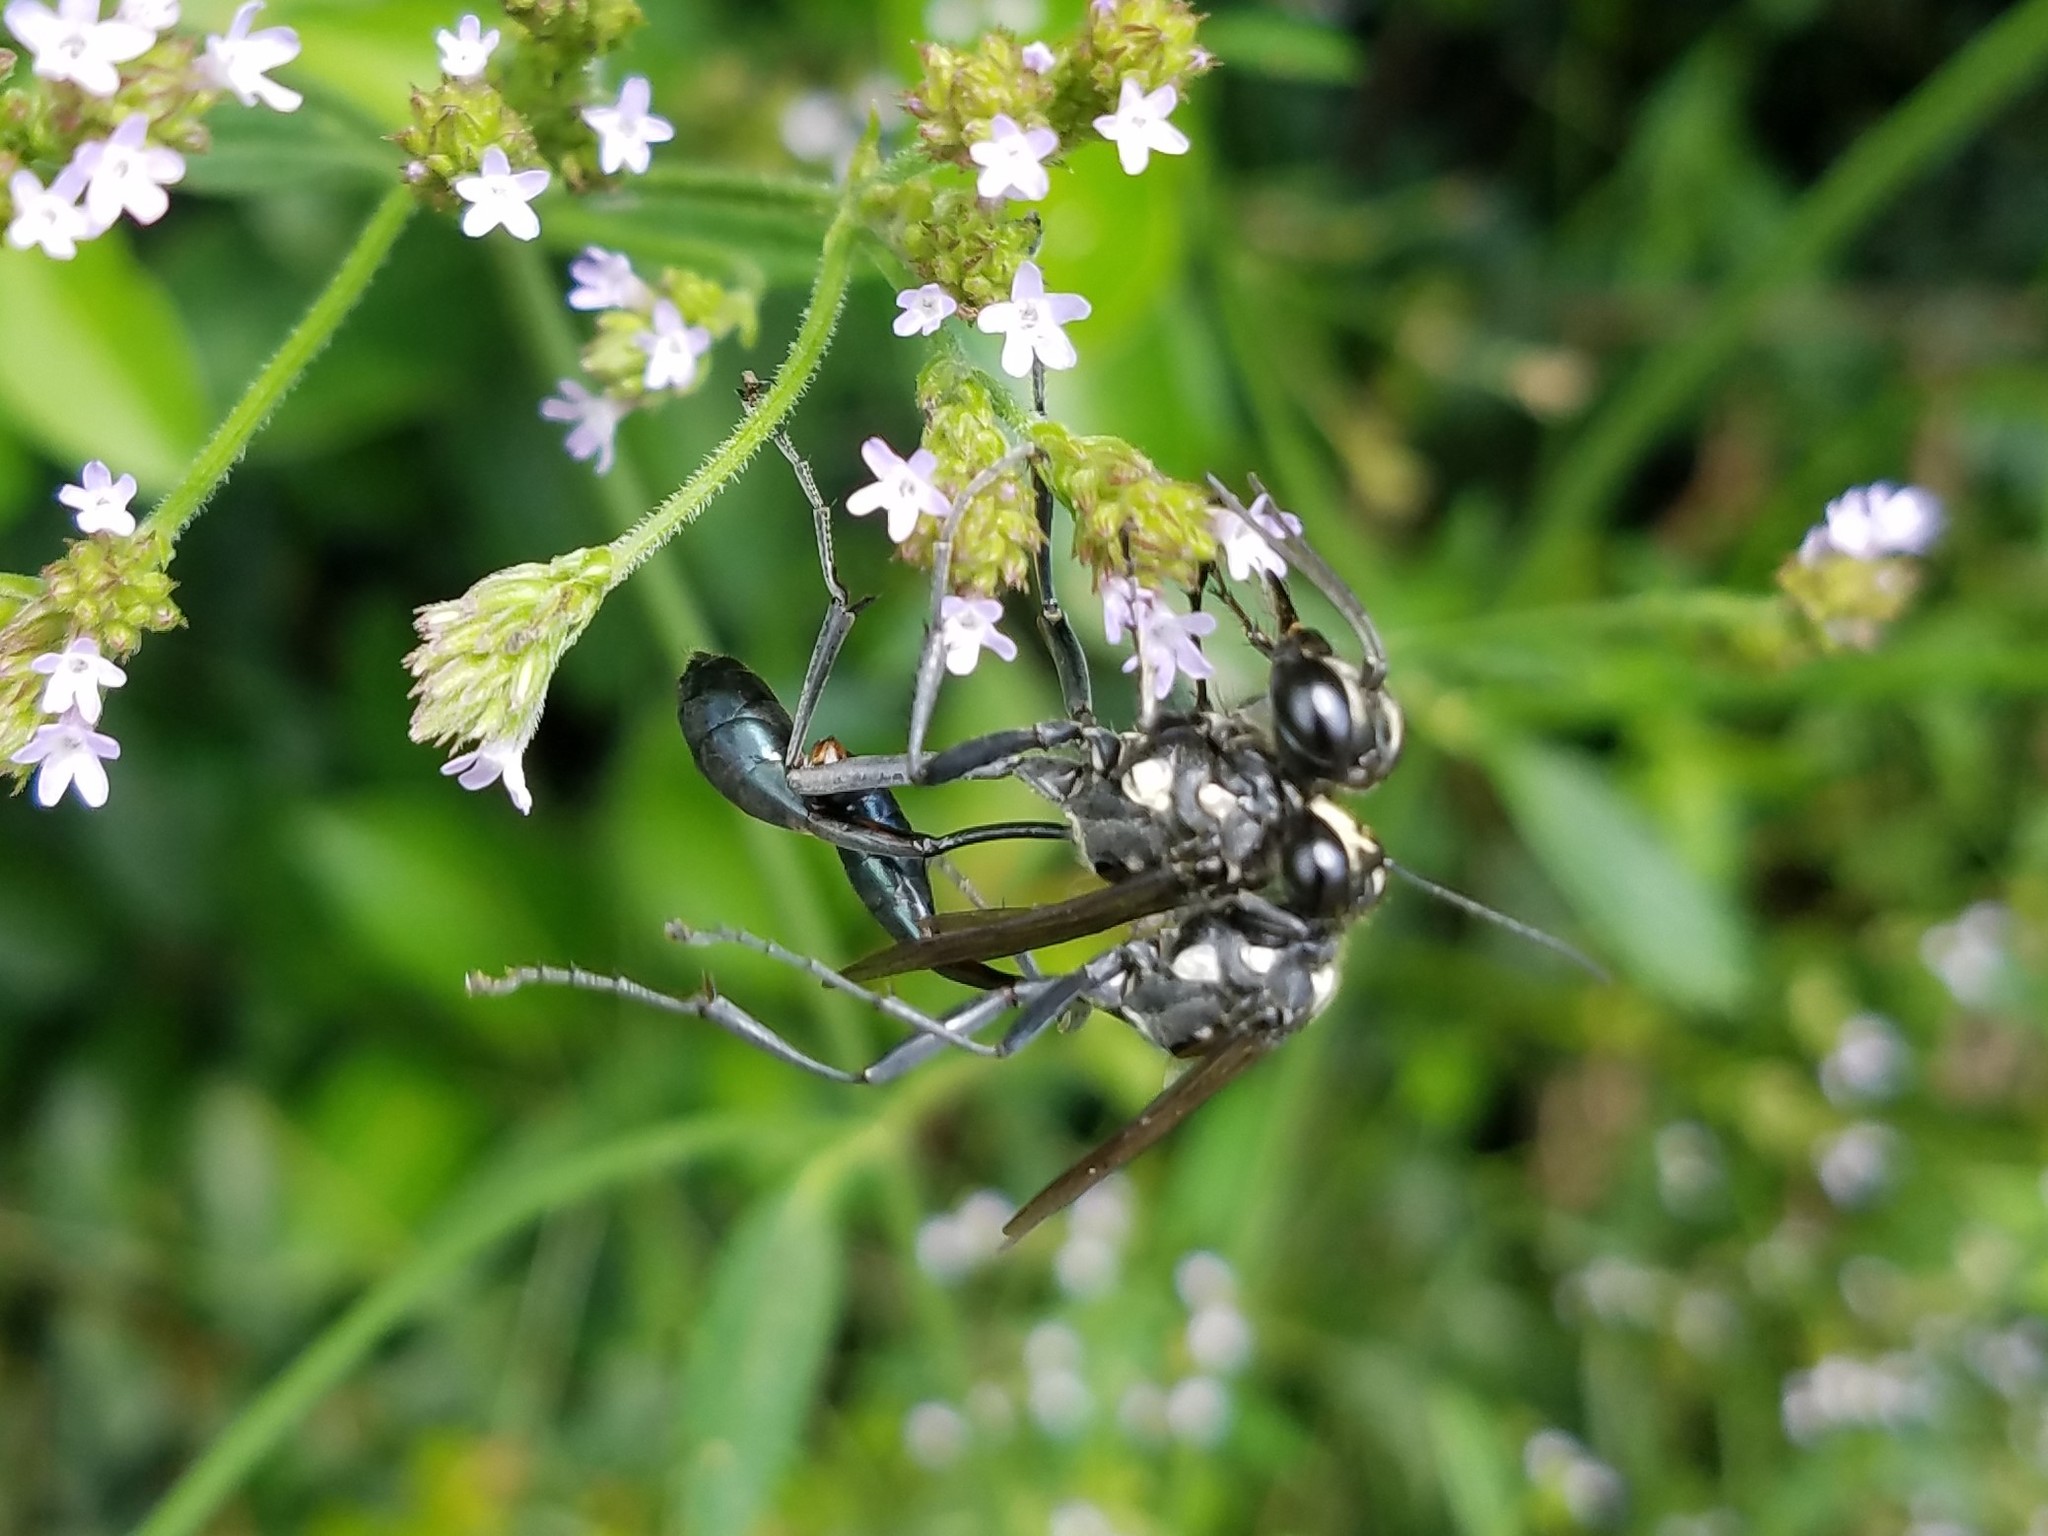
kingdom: Animalia
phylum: Arthropoda
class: Insecta
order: Hymenoptera
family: Sphecidae
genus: Eremnophila
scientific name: Eremnophila aureonotata
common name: Gold-marked thread-waisted wasp
